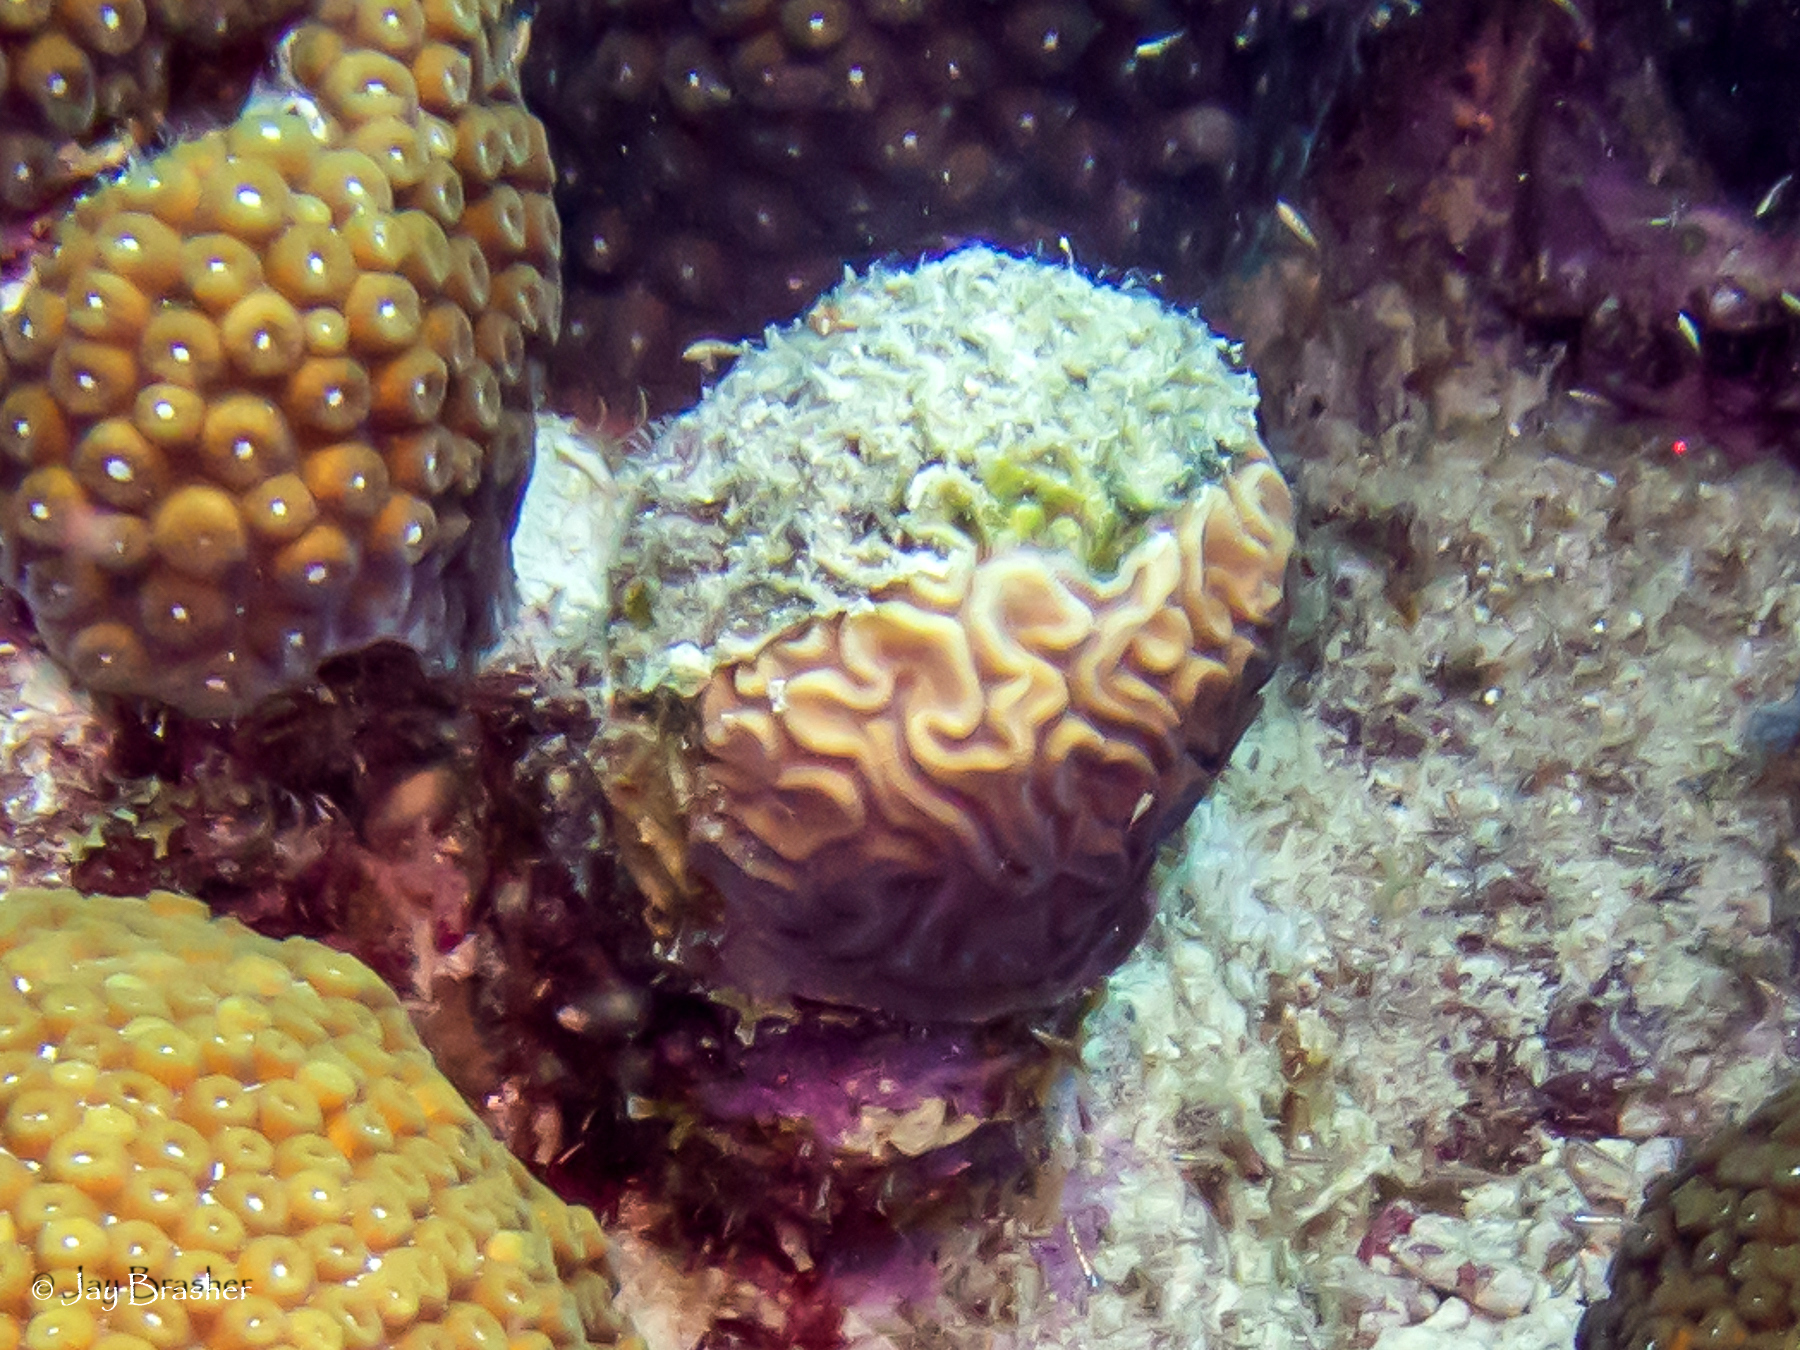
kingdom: Animalia
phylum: Cnidaria
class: Anthozoa
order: Scleractinia
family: Faviidae
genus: Diploria
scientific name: Diploria labyrinthiformis
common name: Grooved brain coral
